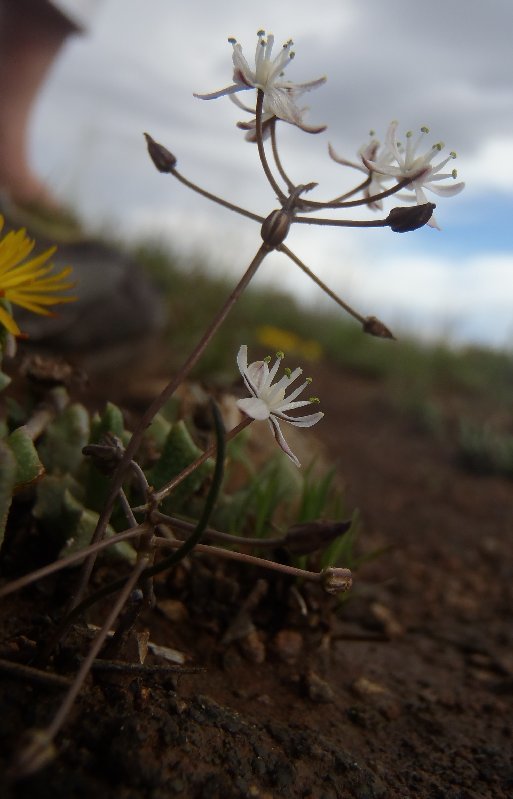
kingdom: Plantae
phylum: Tracheophyta
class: Liliopsida
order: Asparagales
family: Asparagaceae
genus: Fusifilum
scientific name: Fusifilum depressum
